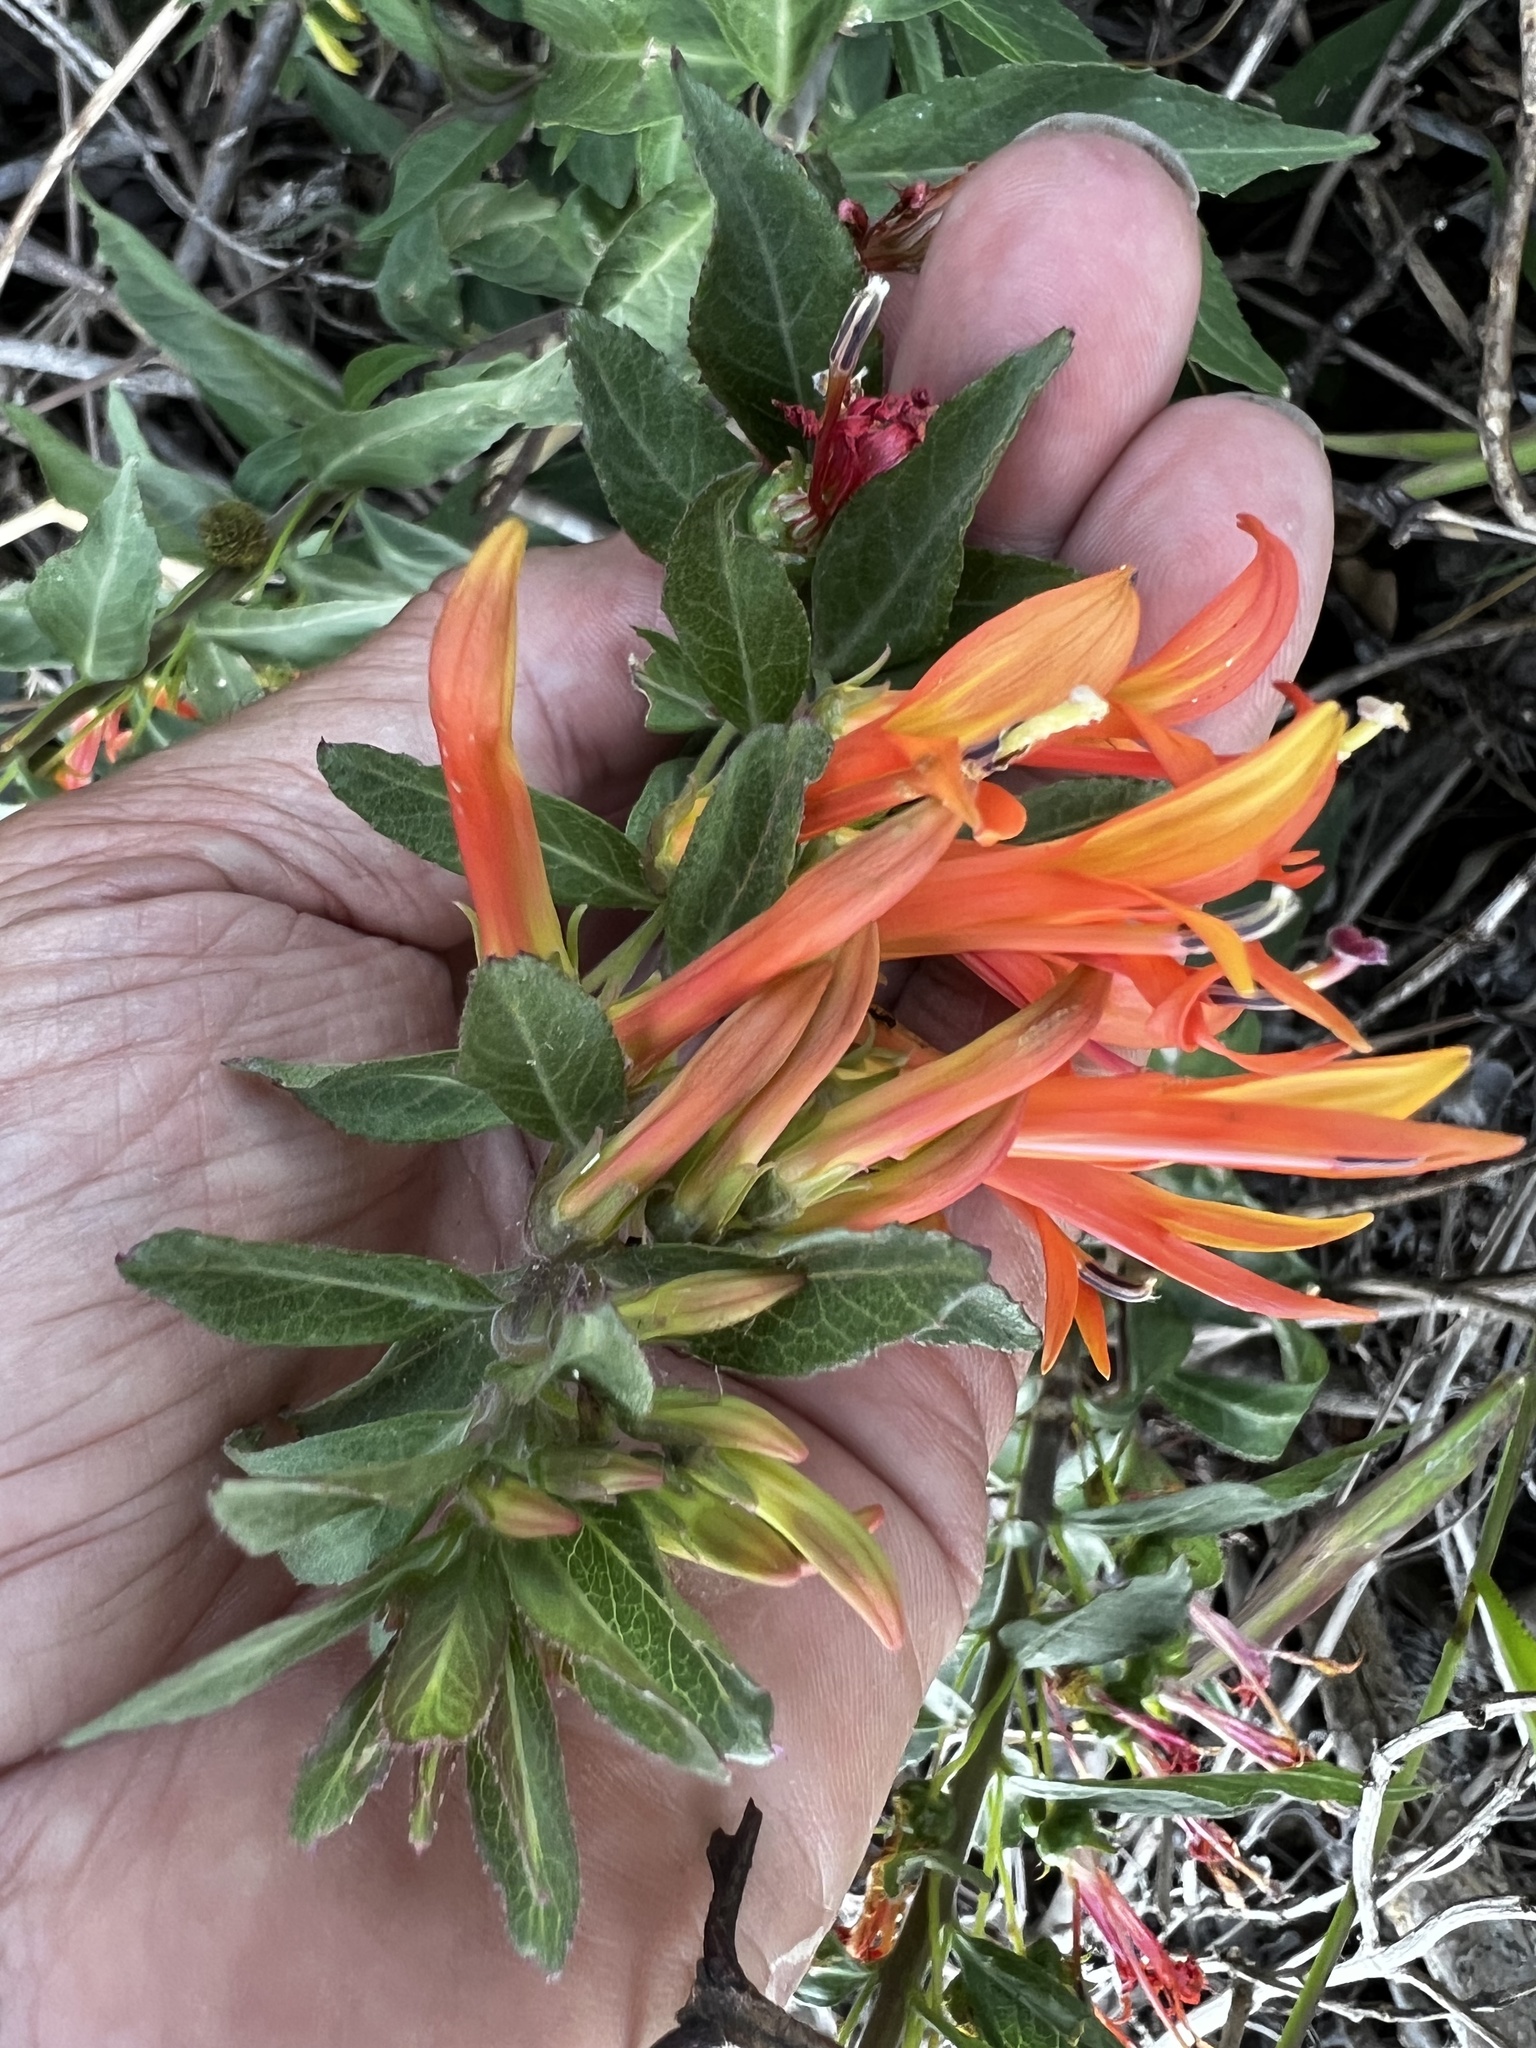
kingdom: Plantae
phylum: Tracheophyta
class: Magnoliopsida
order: Asterales
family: Campanulaceae
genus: Lobelia
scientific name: Lobelia laxiflora
